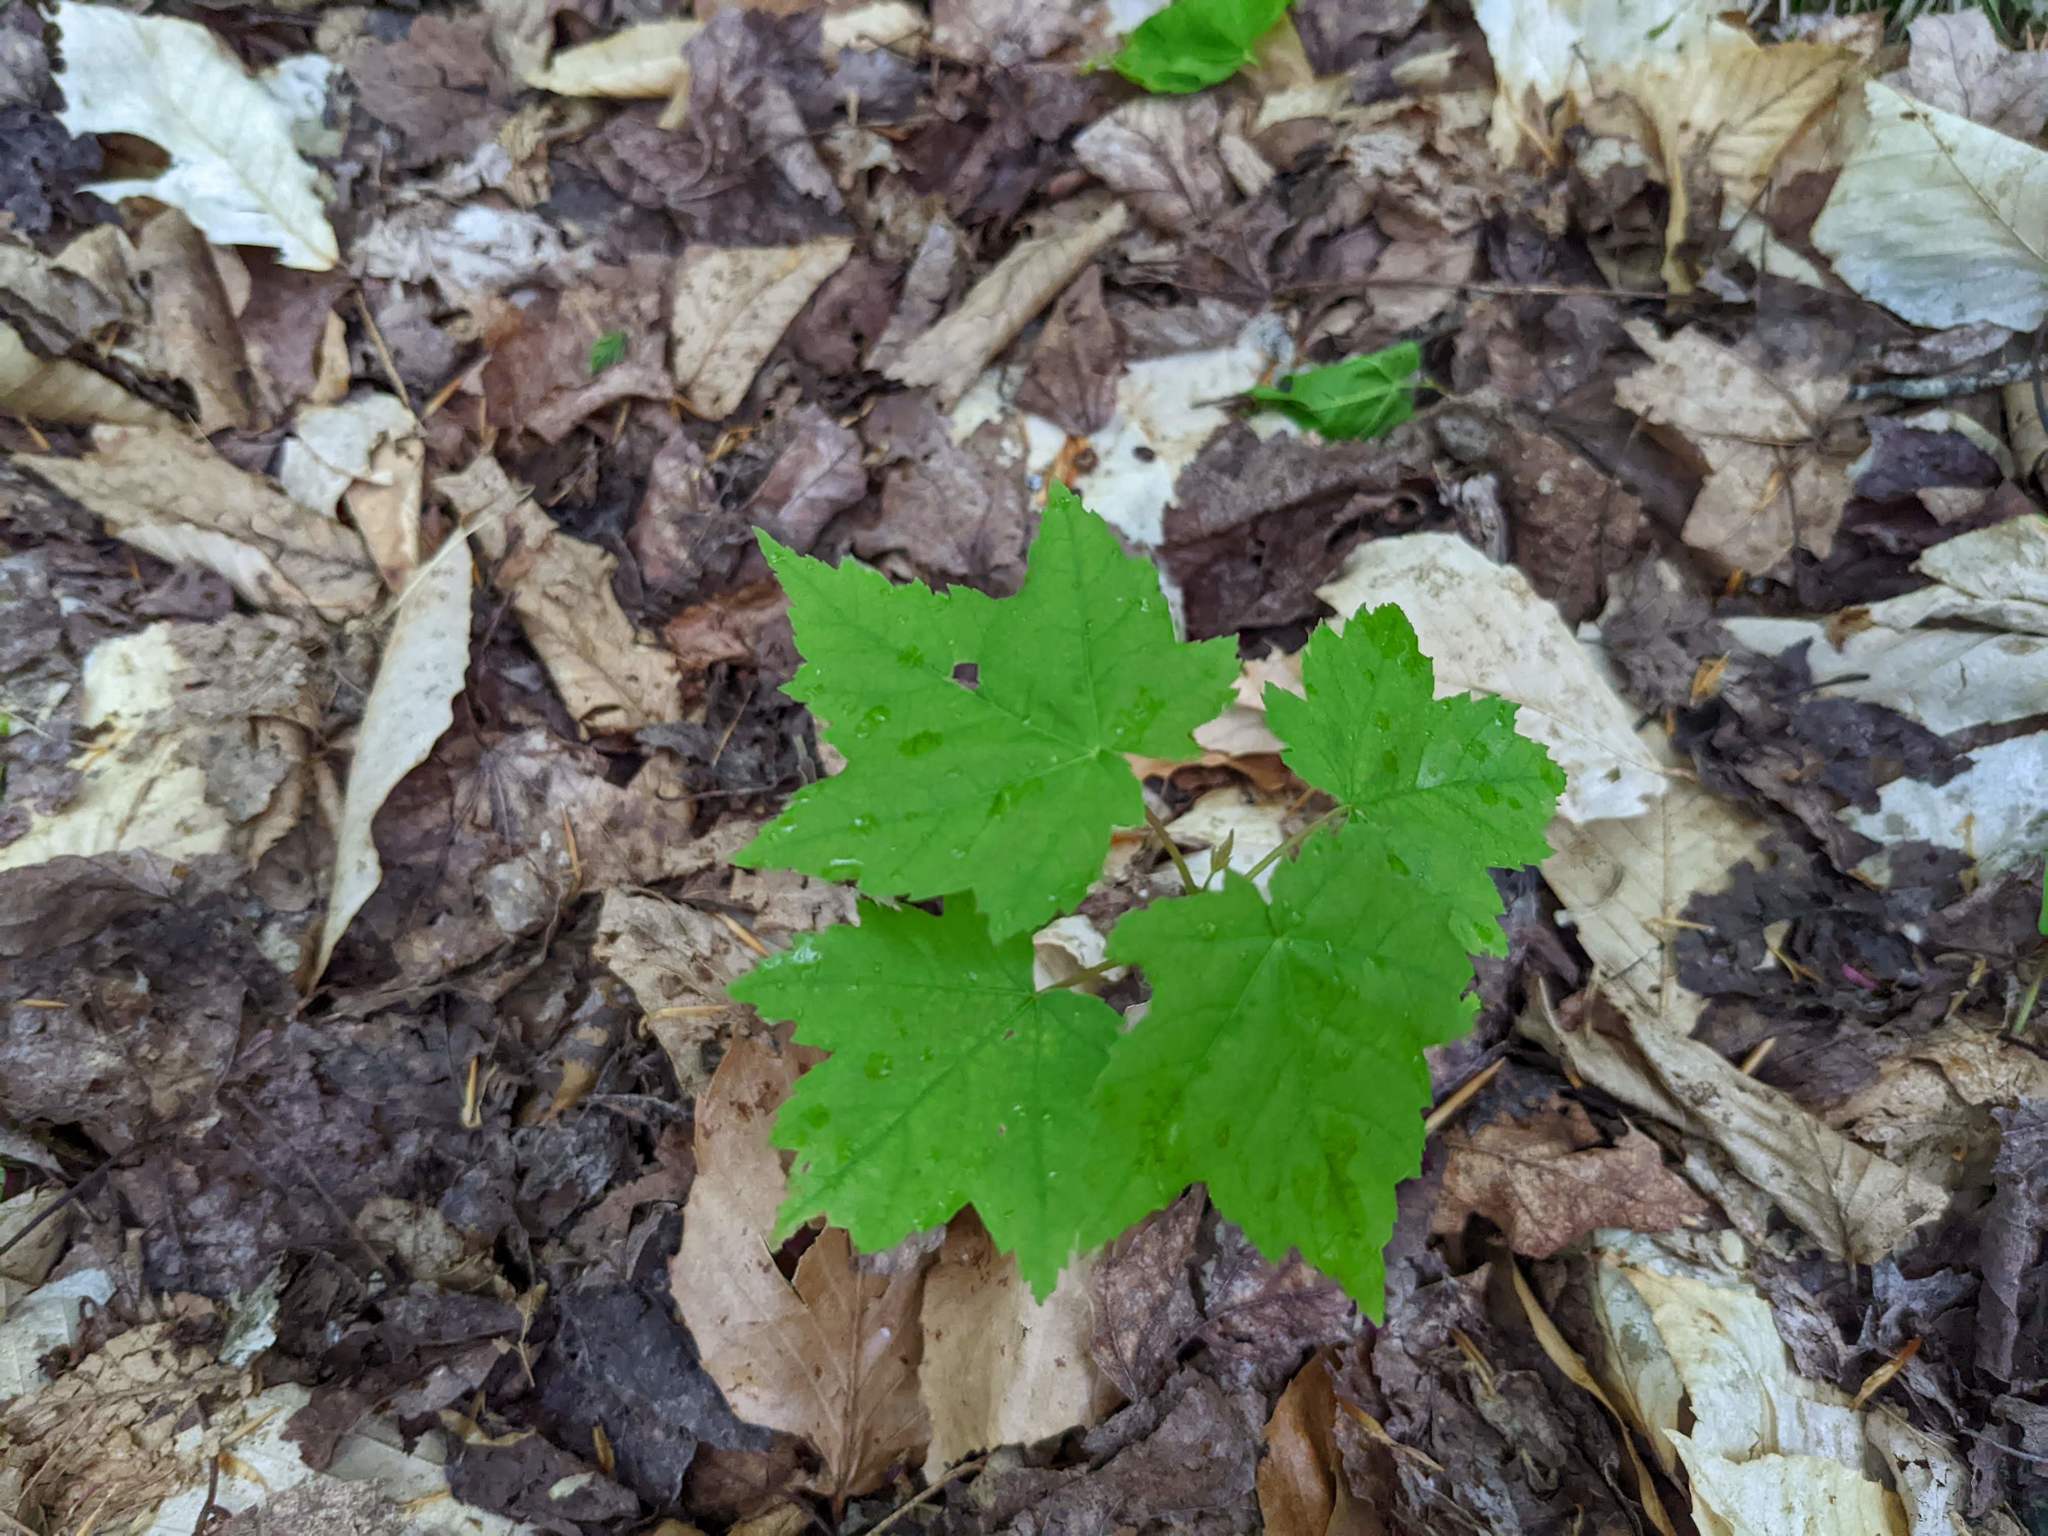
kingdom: Plantae
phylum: Tracheophyta
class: Magnoliopsida
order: Sapindales
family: Sapindaceae
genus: Acer
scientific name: Acer rubrum
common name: Red maple
